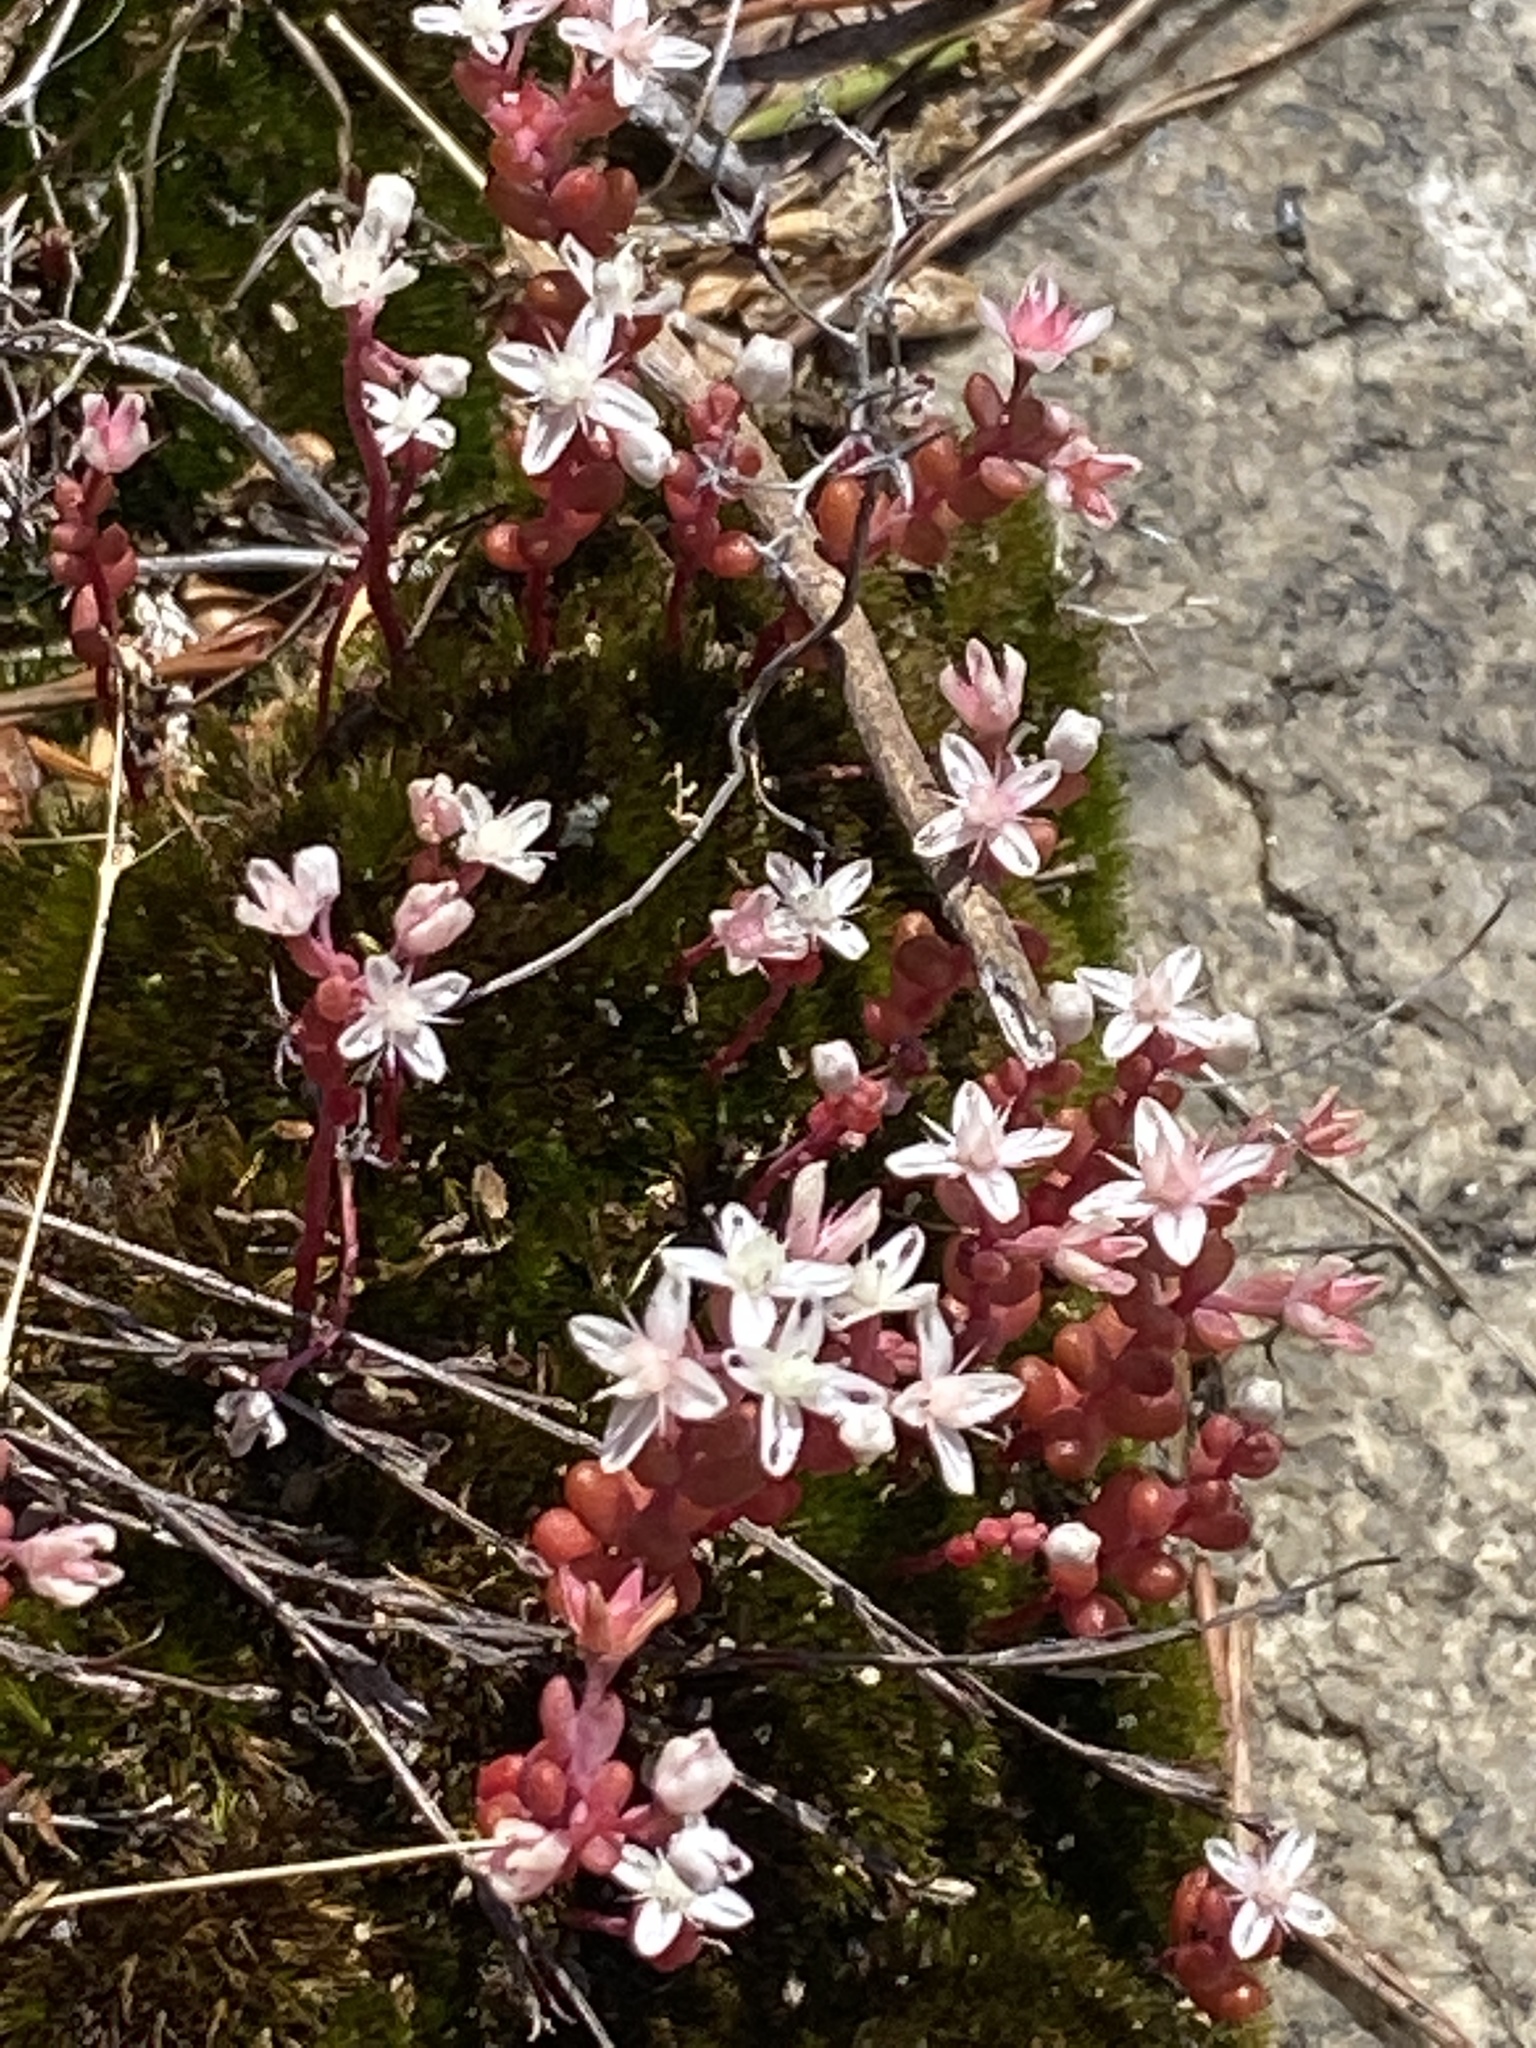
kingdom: Plantae
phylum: Tracheophyta
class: Magnoliopsida
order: Saxifragales
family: Crassulaceae
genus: Sedum
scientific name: Sedum smallii
